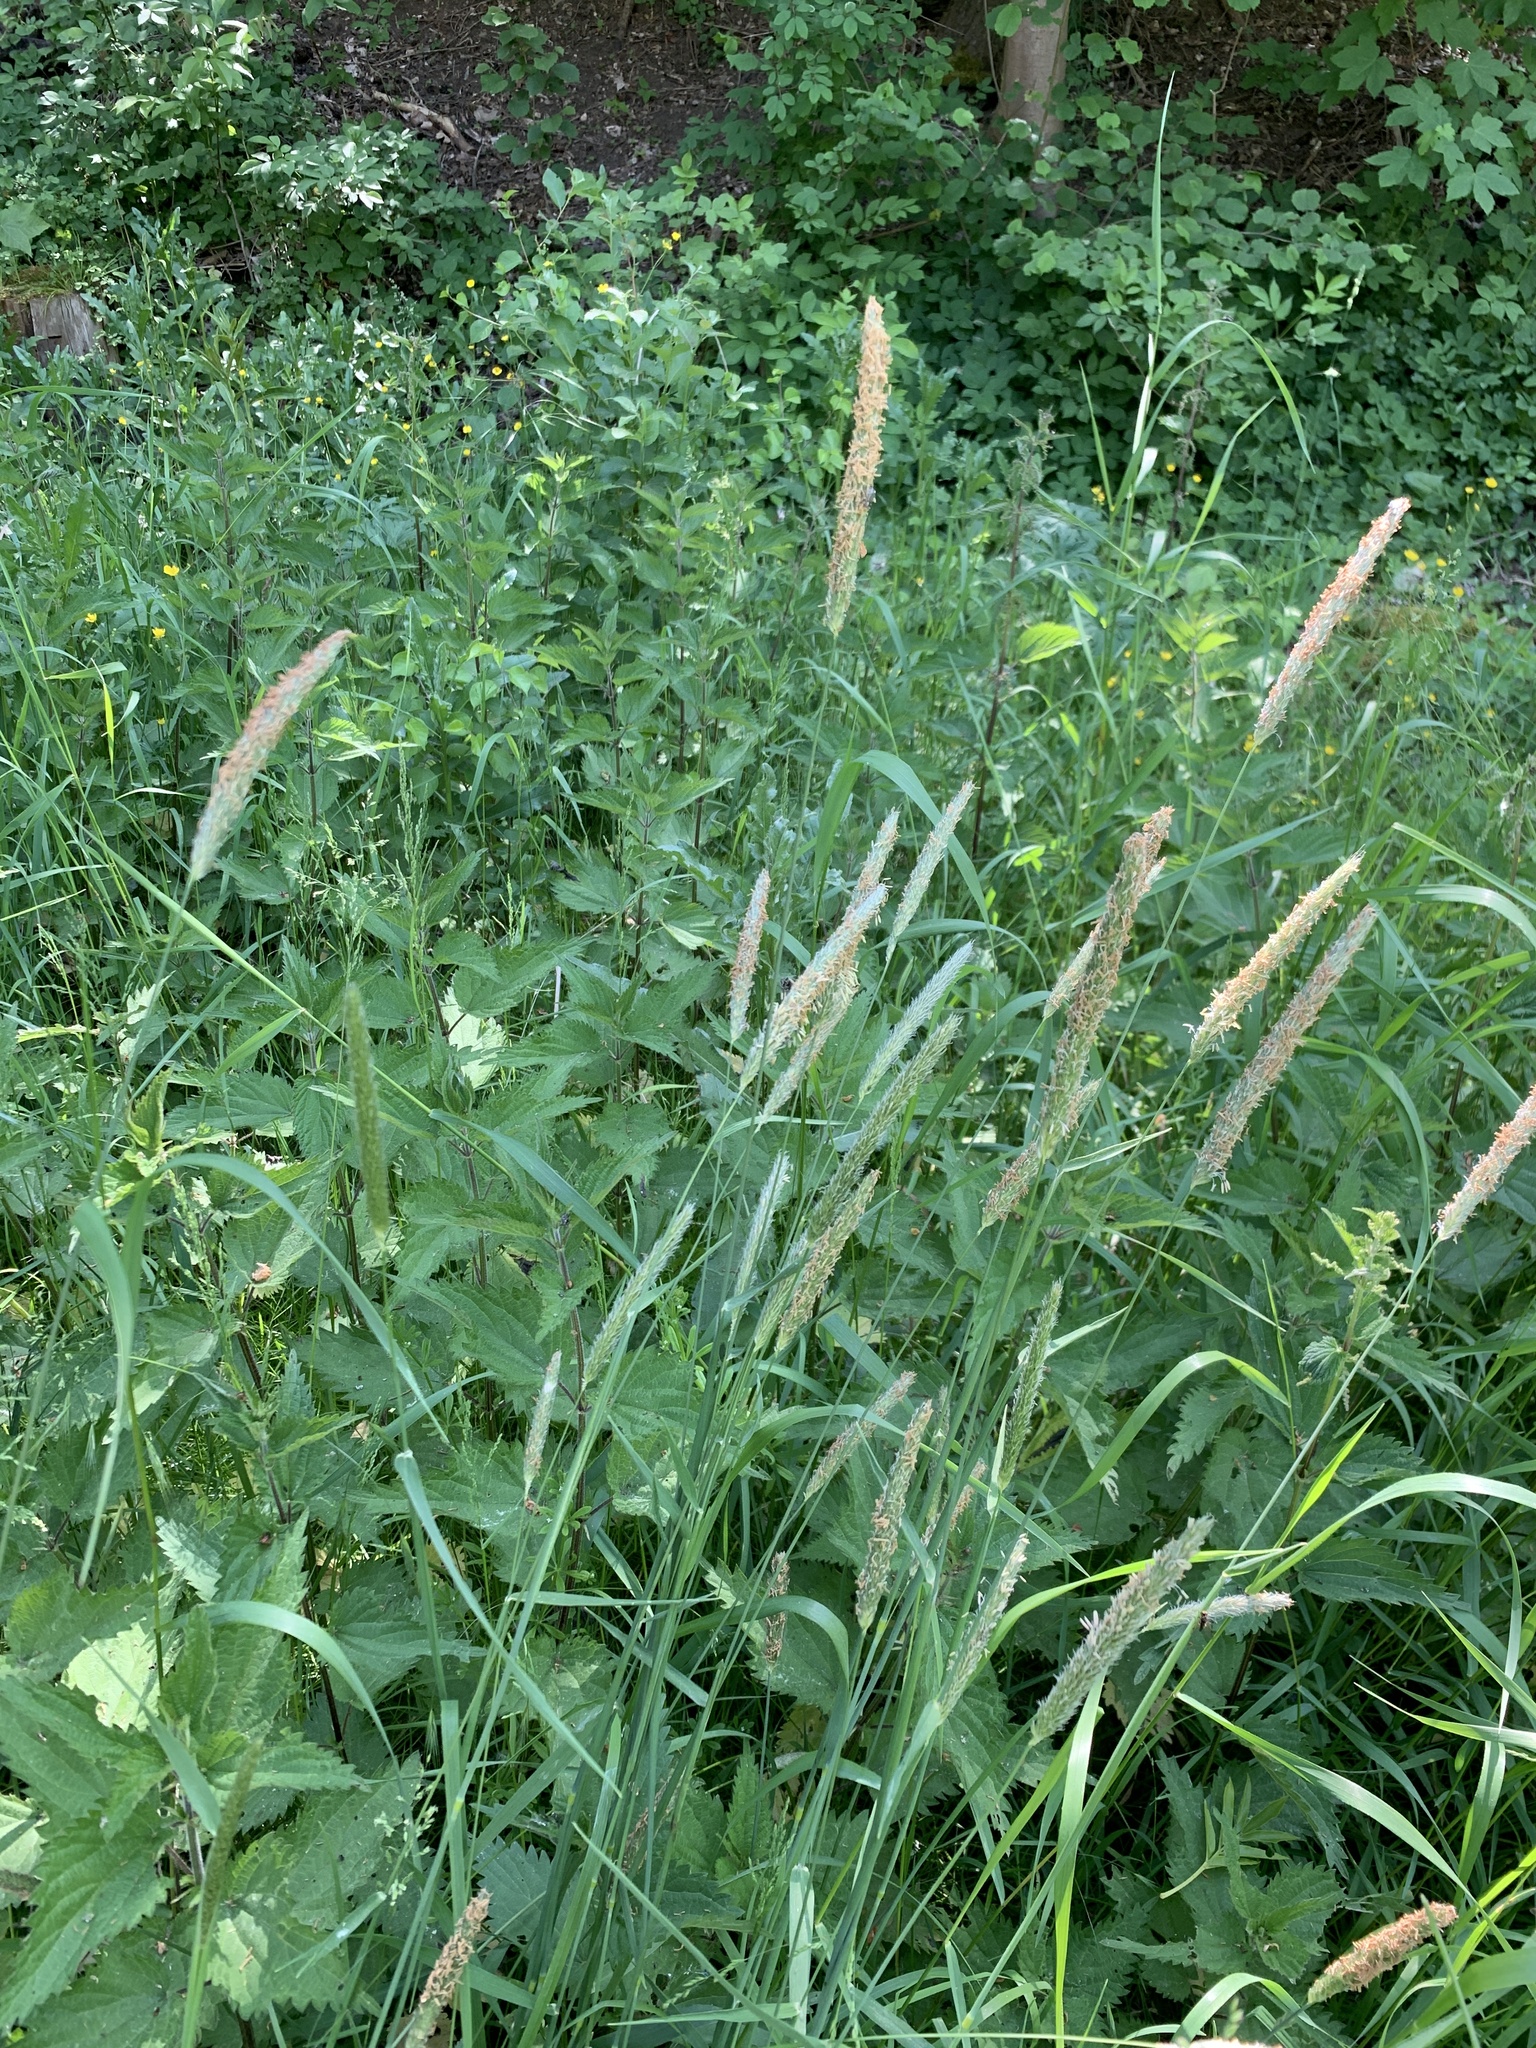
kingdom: Plantae
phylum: Tracheophyta
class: Liliopsida
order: Poales
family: Poaceae
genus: Alopecurus
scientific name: Alopecurus pratensis
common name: Meadow foxtail
